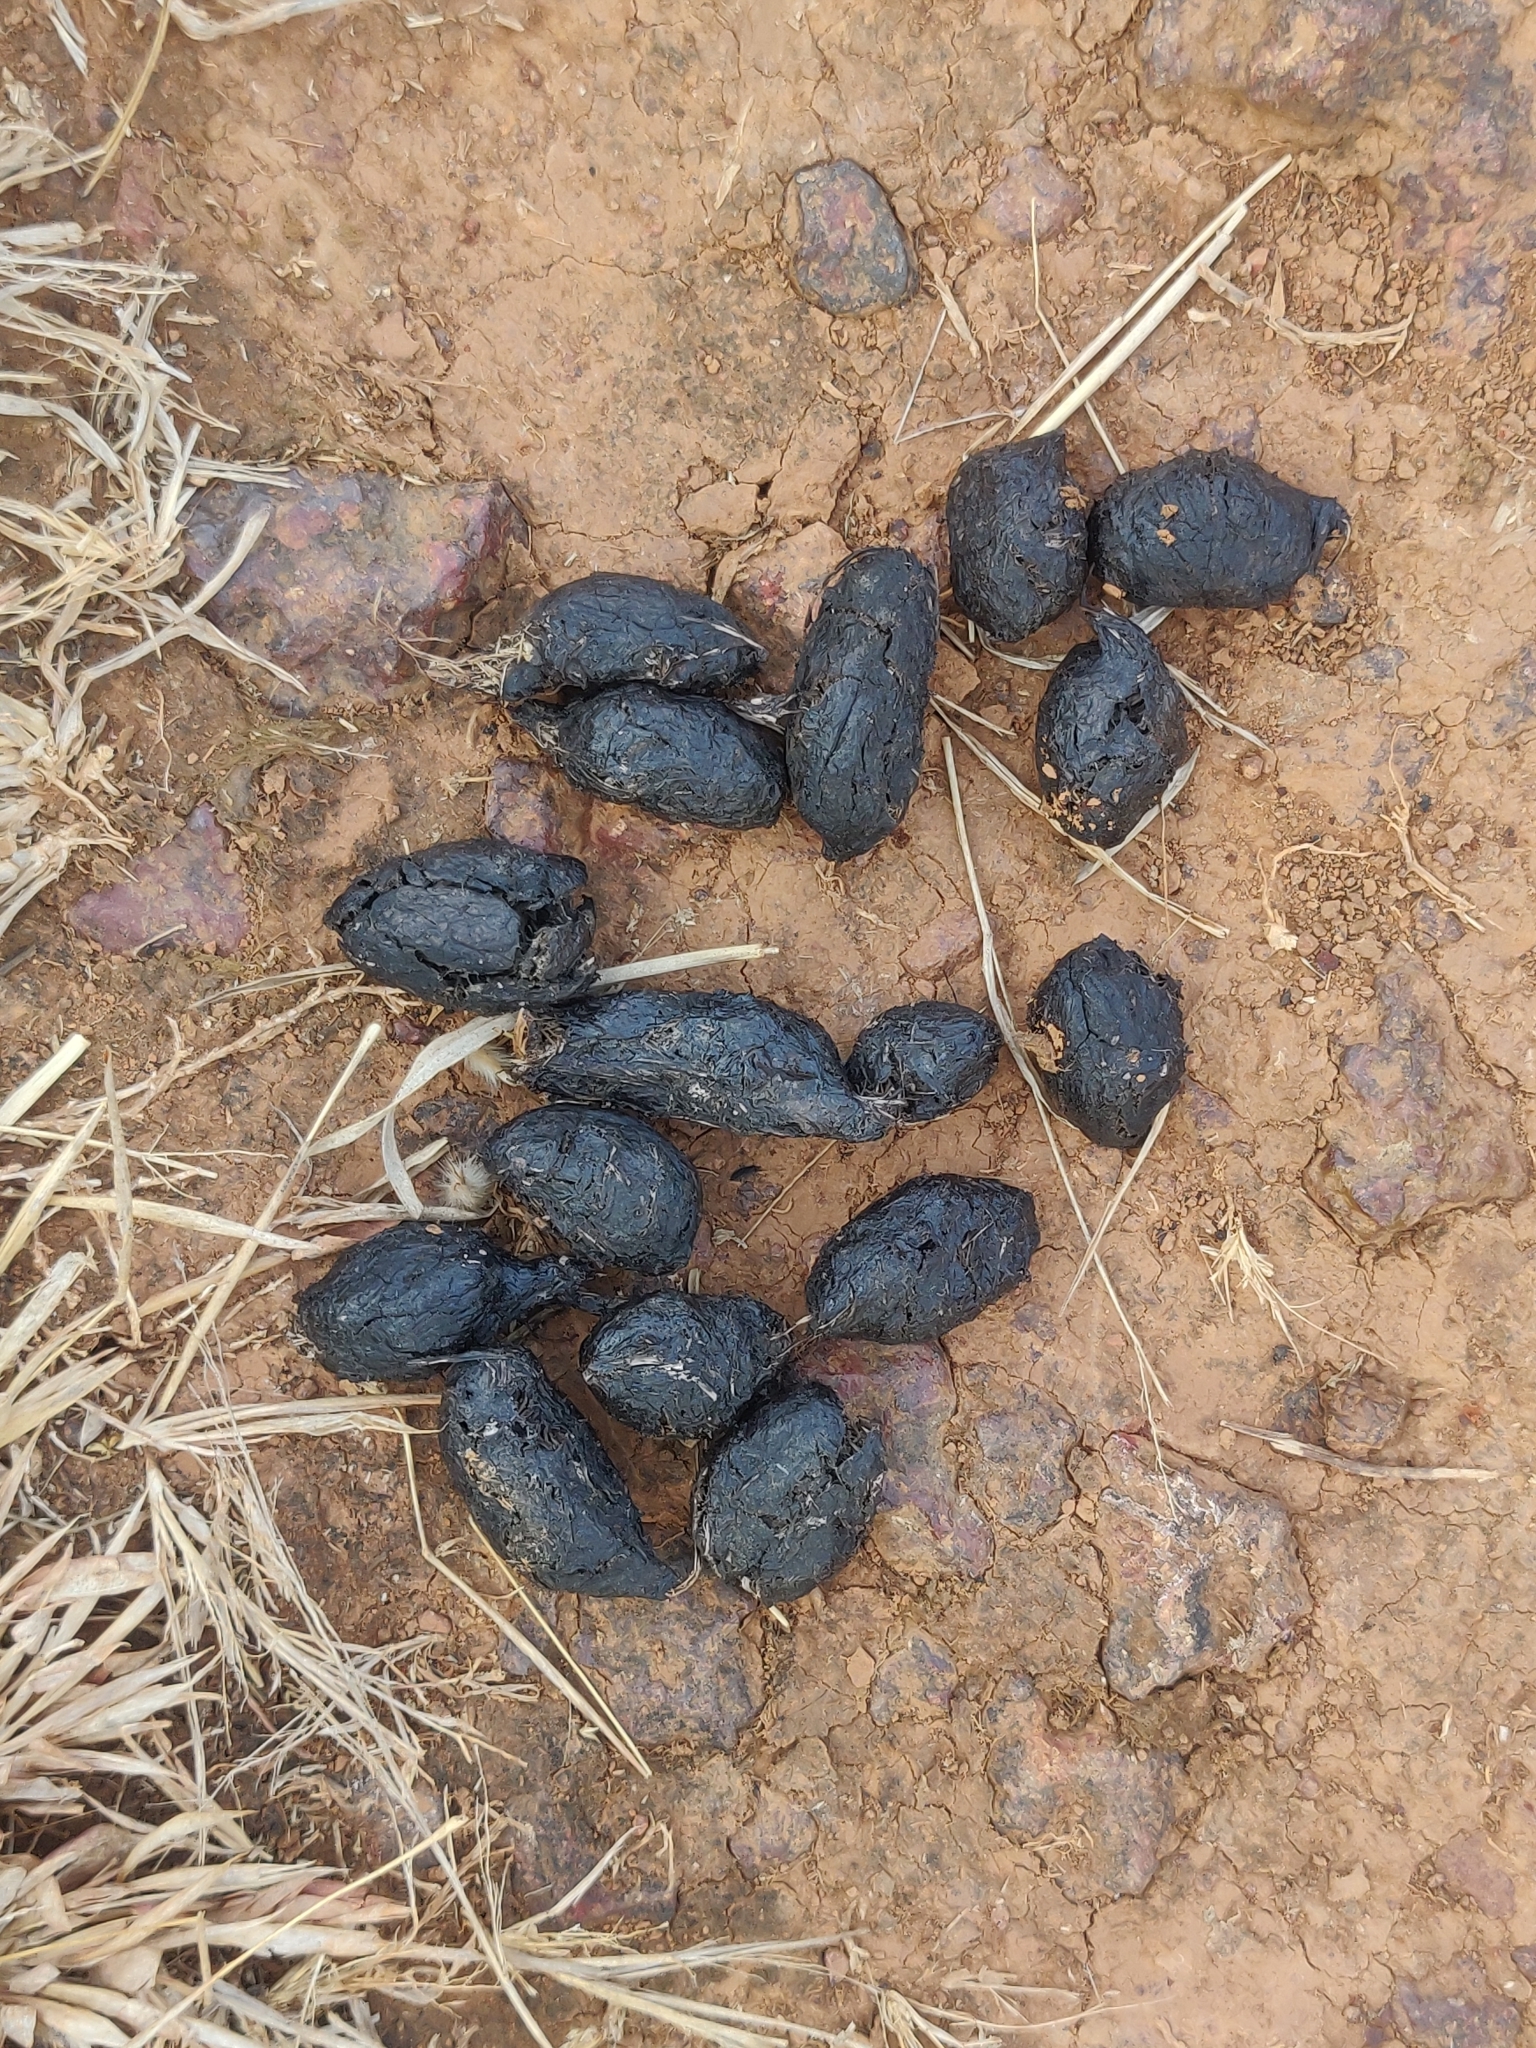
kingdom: Animalia
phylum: Chordata
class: Mammalia
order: Rodentia
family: Hystricidae
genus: Hystrix
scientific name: Hystrix indica
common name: Indian crested porcupine
